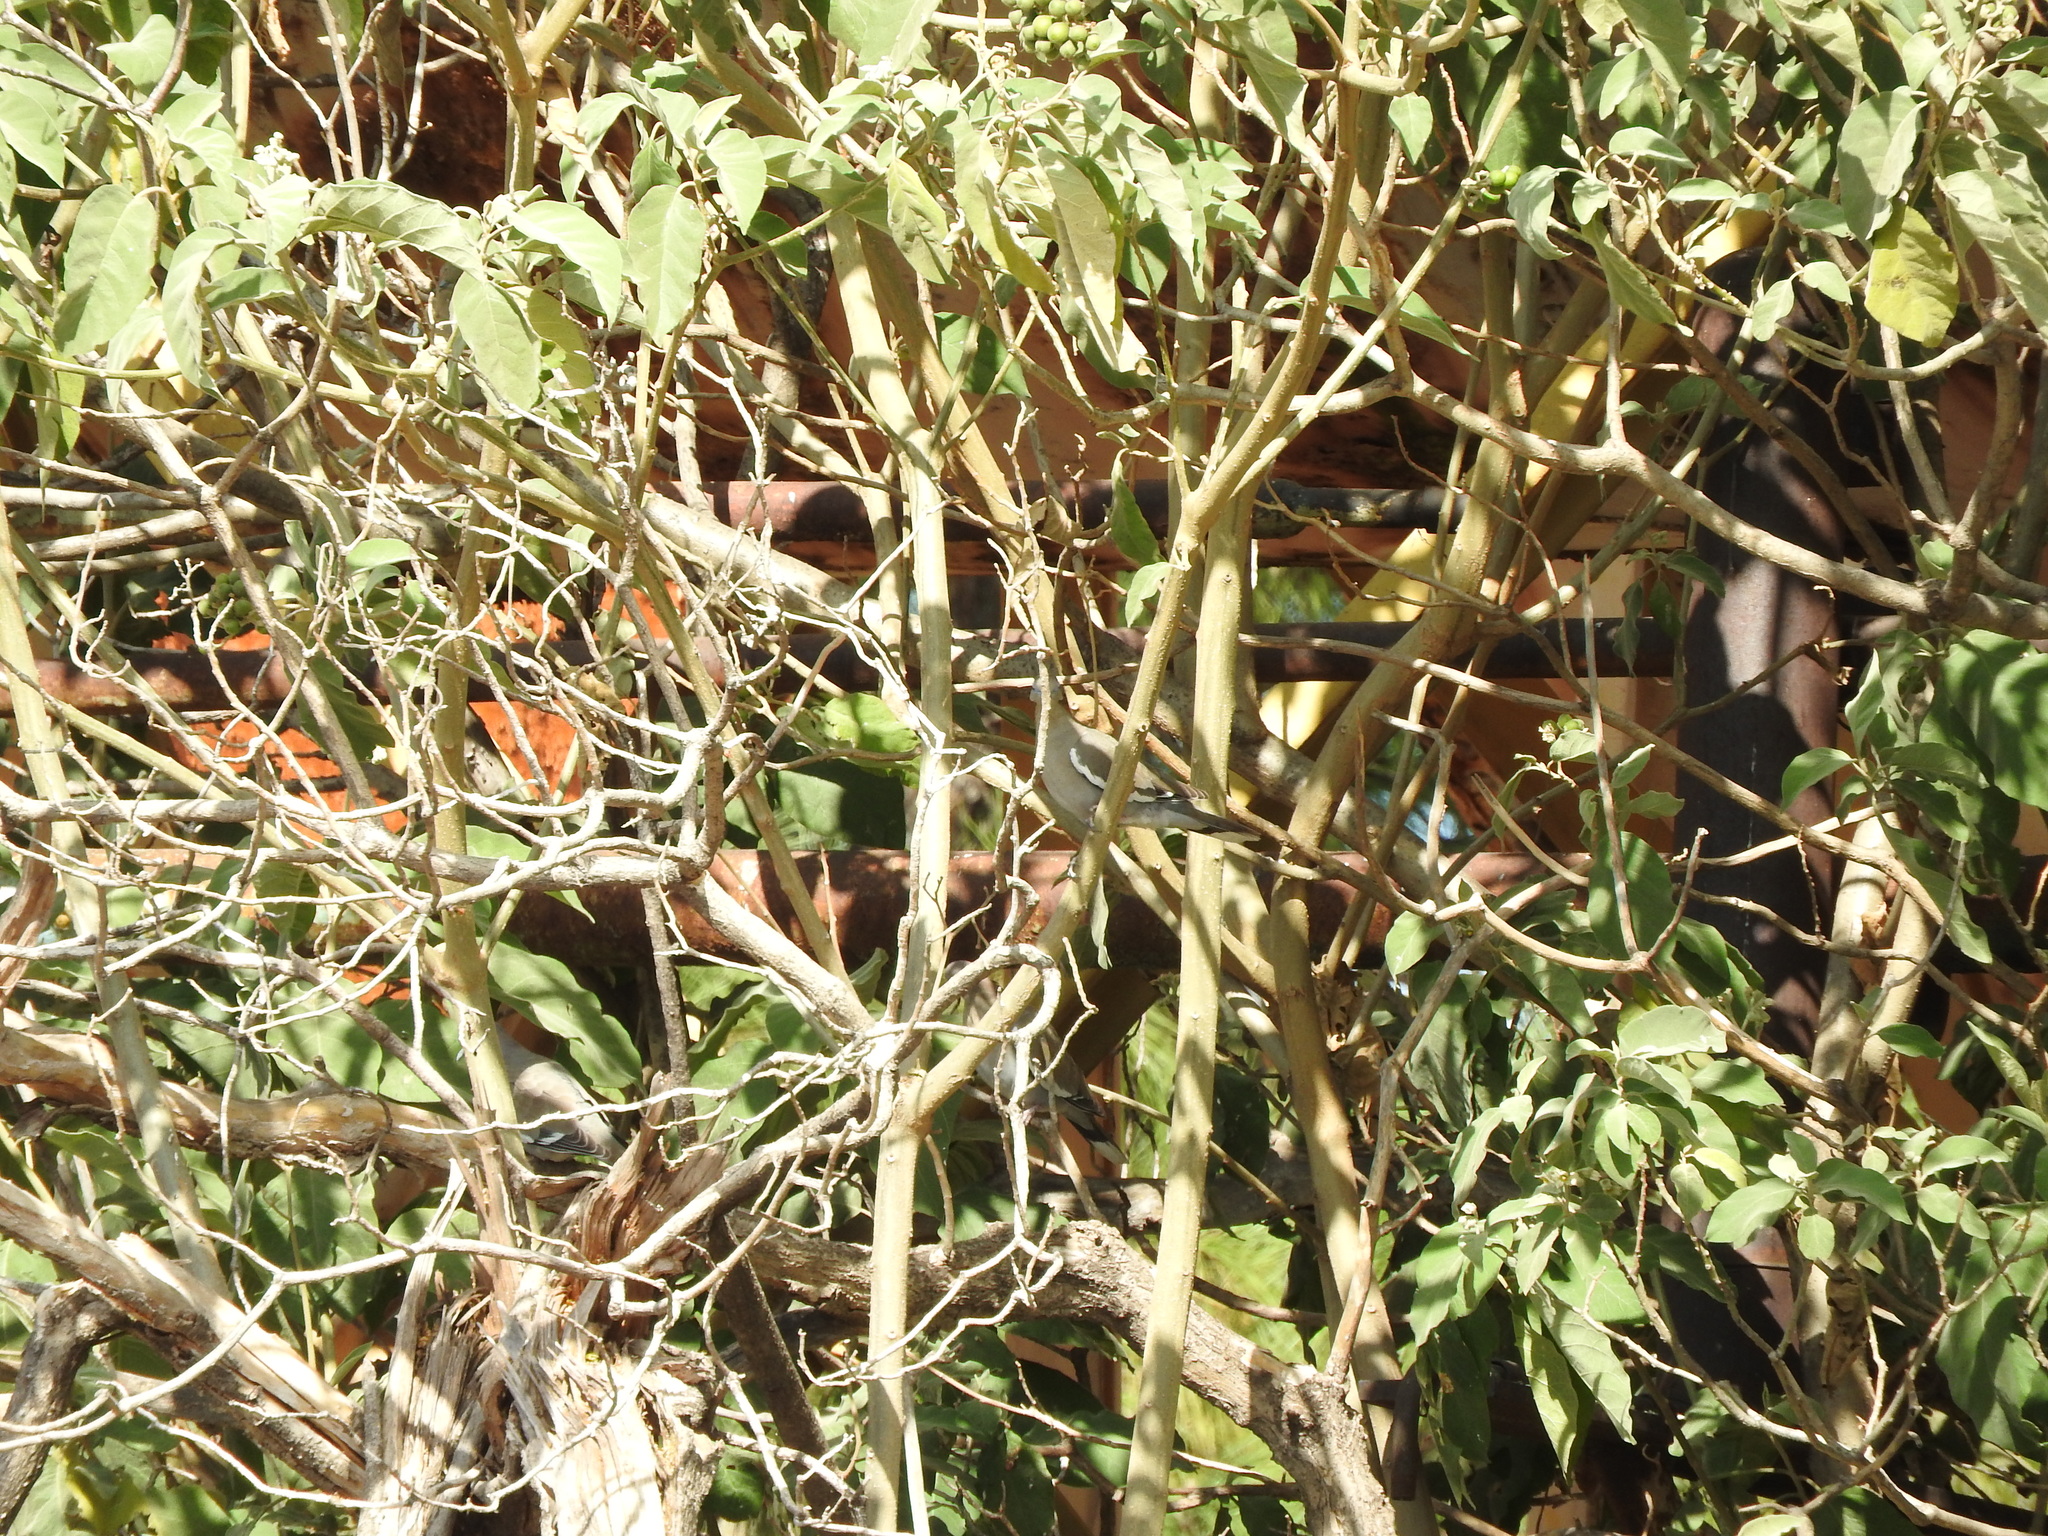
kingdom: Animalia
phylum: Chordata
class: Aves
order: Columbiformes
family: Columbidae
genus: Zenaida
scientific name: Zenaida asiatica
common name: White-winged dove
